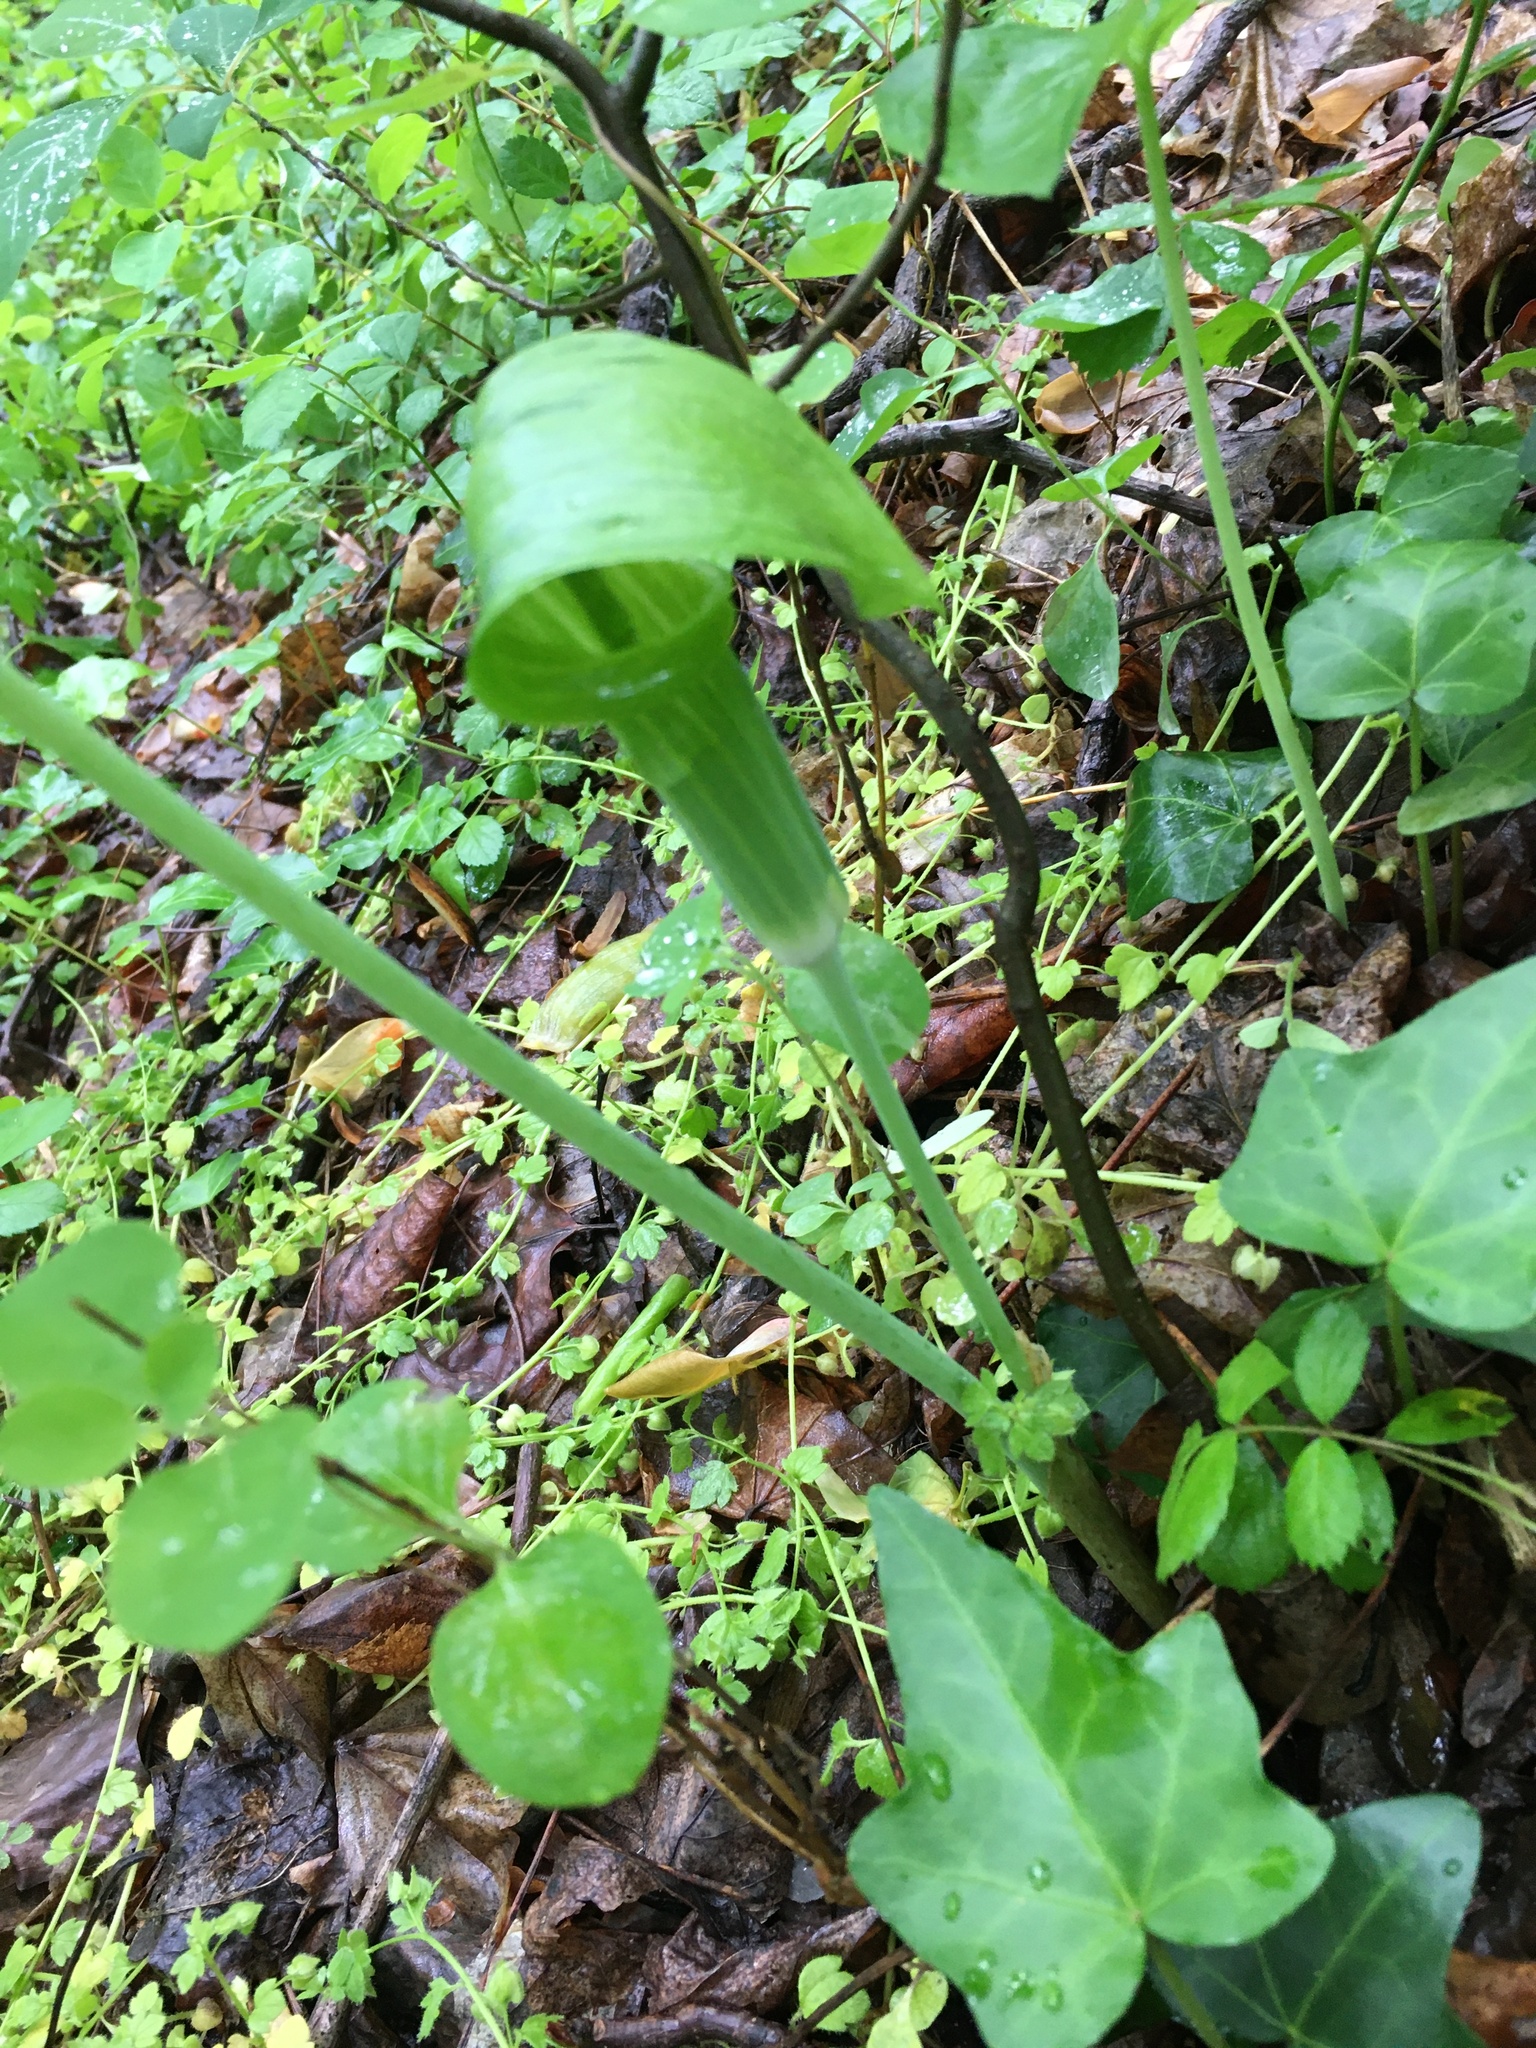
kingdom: Plantae
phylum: Tracheophyta
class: Liliopsida
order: Alismatales
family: Araceae
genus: Arisaema
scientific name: Arisaema triphyllum
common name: Jack-in-the-pulpit
